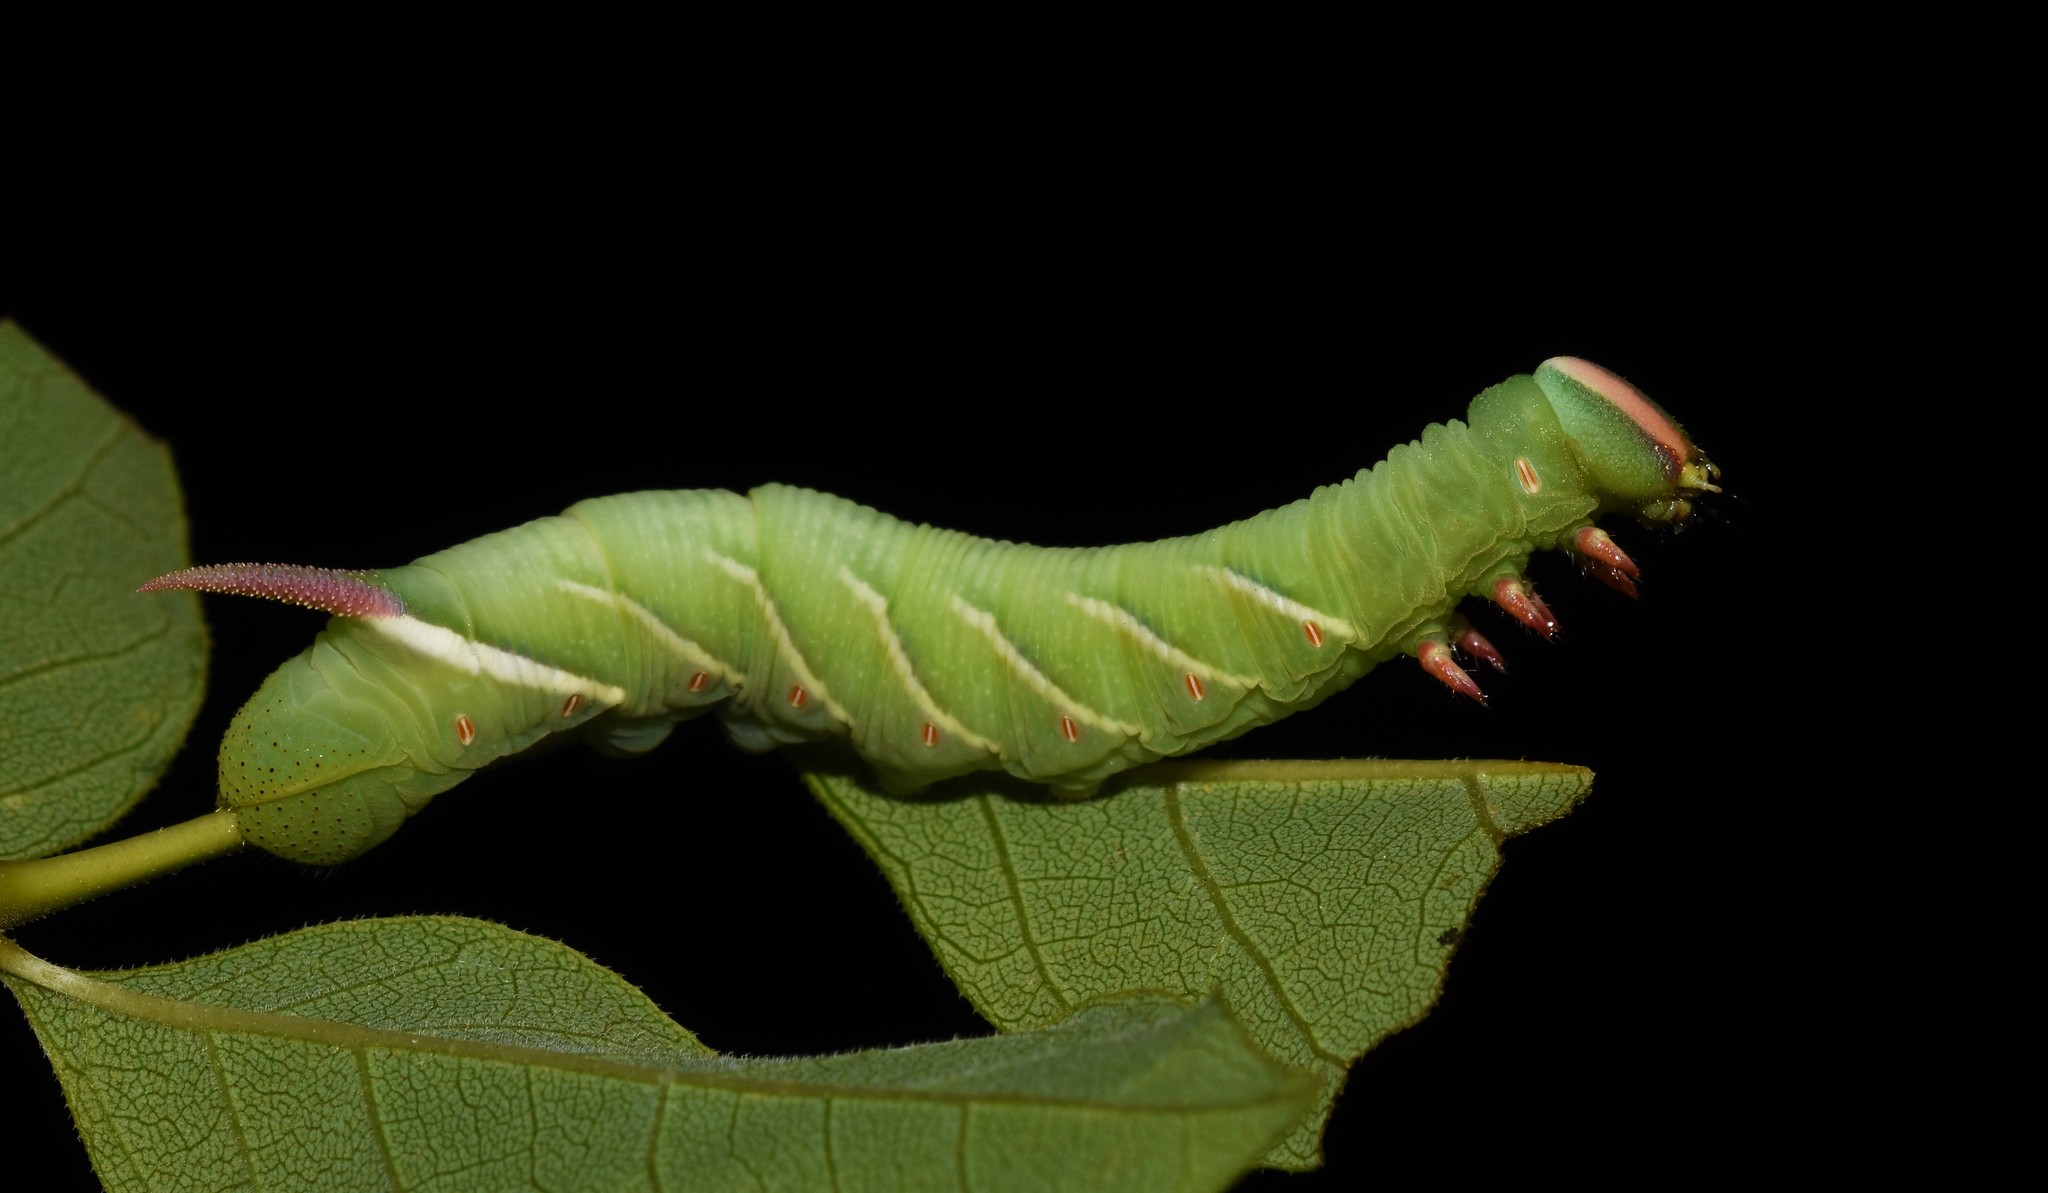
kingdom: Animalia
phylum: Arthropoda
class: Insecta
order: Lepidoptera
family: Sphingidae
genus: Ceratomia
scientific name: Ceratomia undulosa
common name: Waved sphinx
